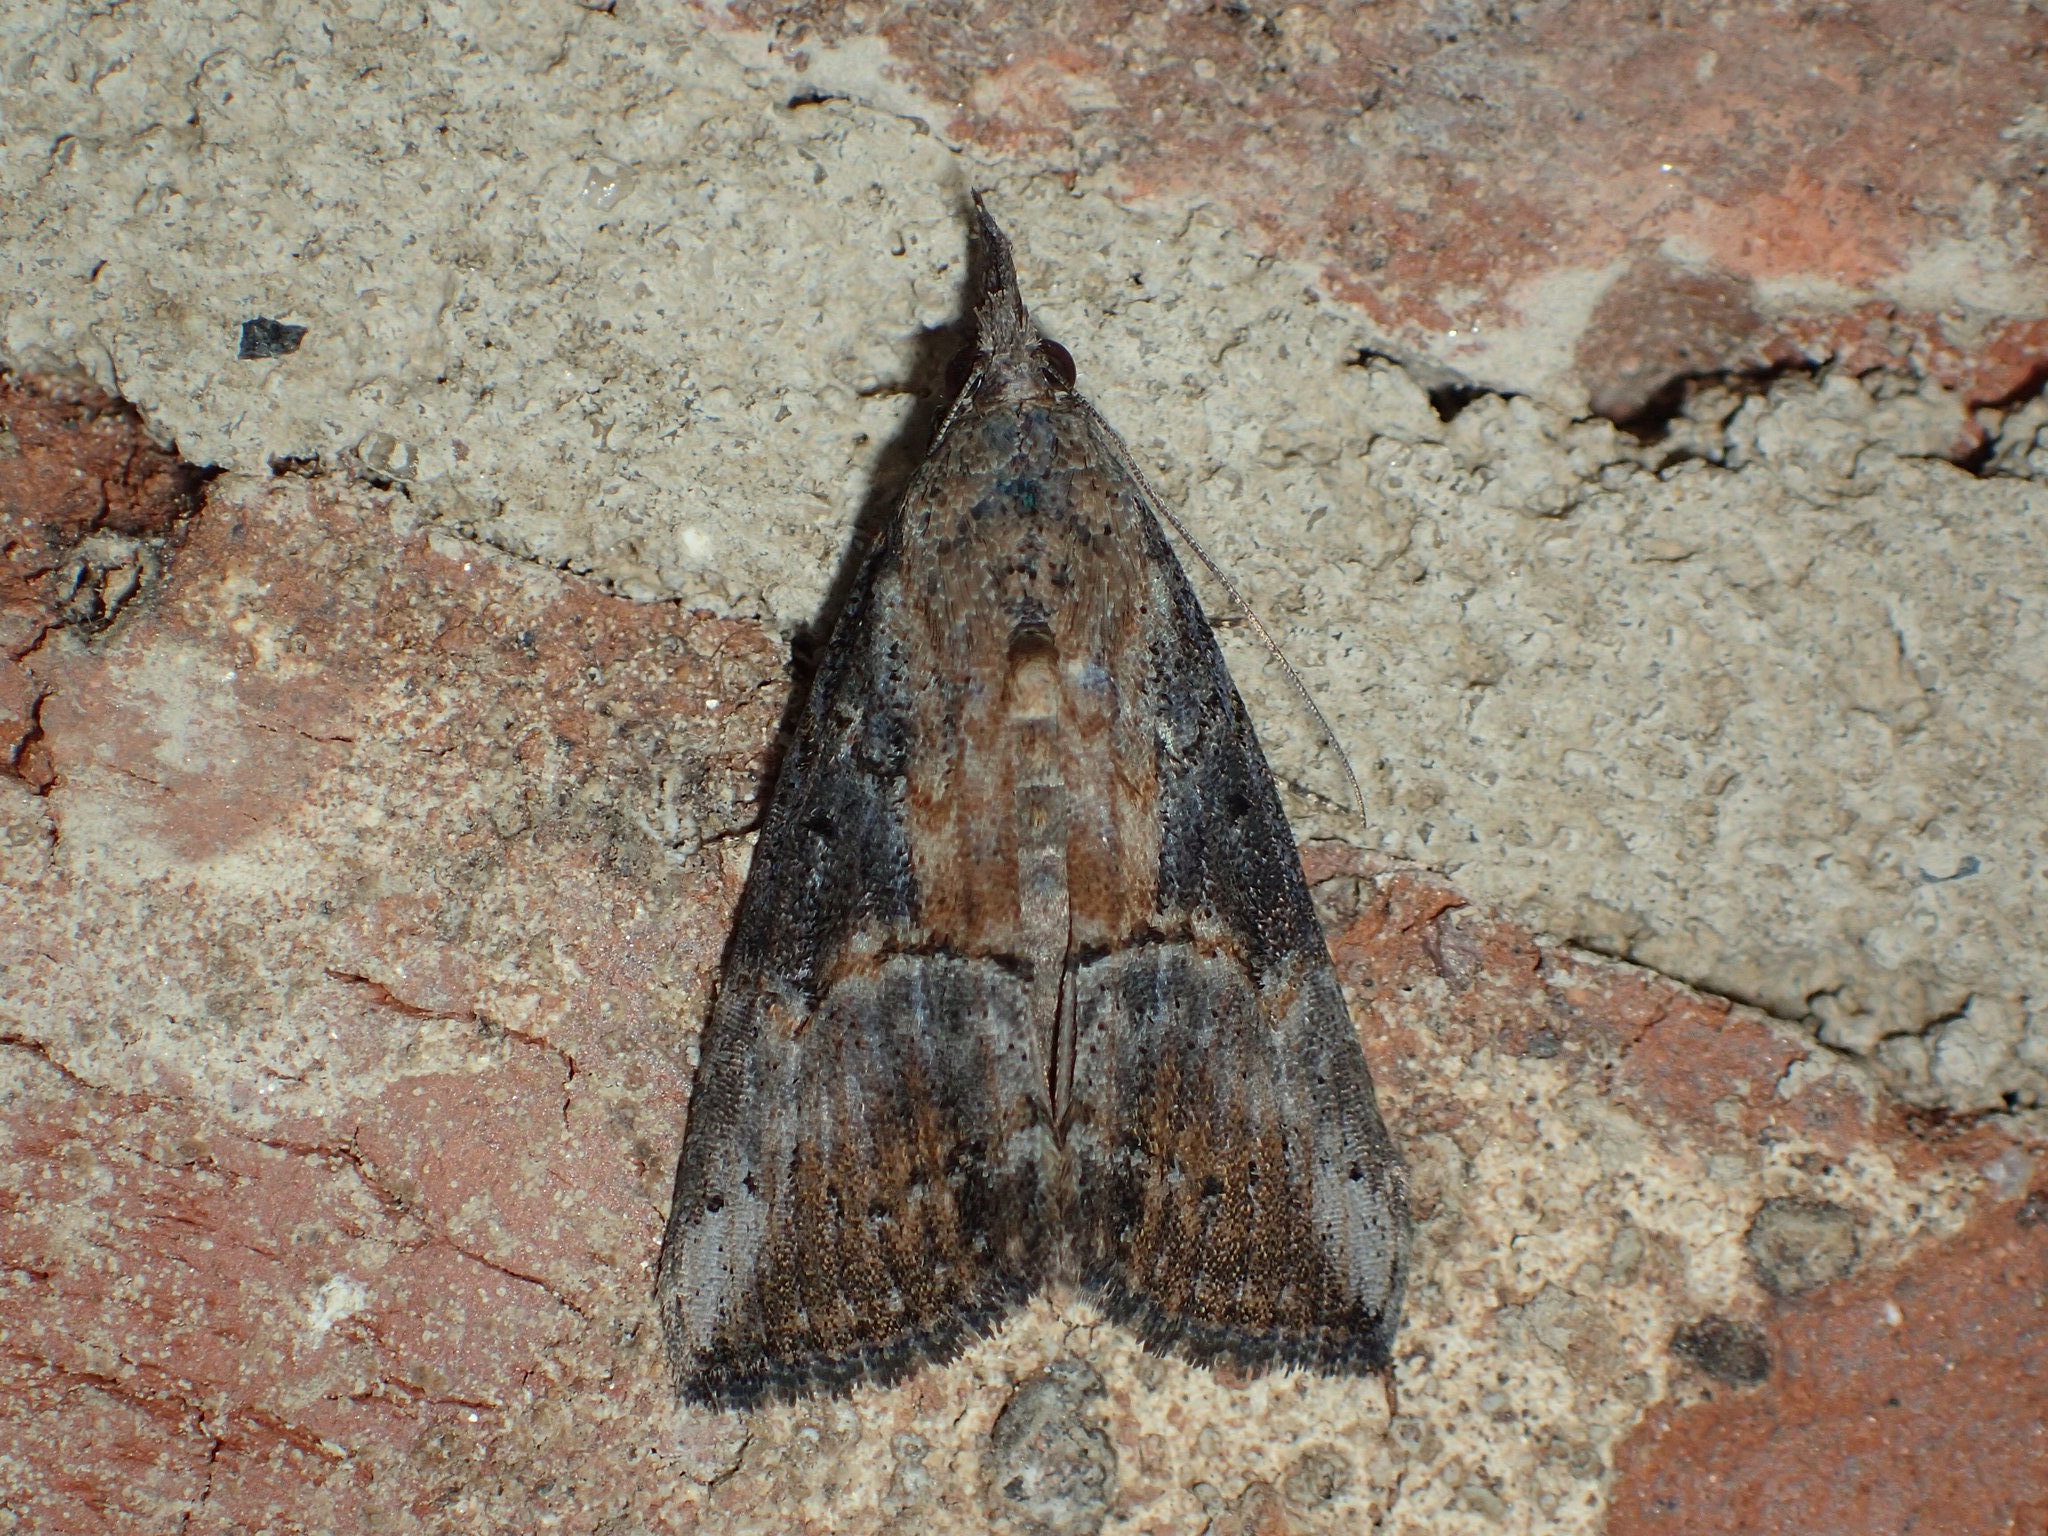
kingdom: Animalia
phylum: Arthropoda
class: Insecta
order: Lepidoptera
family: Erebidae
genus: Hypena
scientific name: Hypena scabra
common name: Green cloverworm
